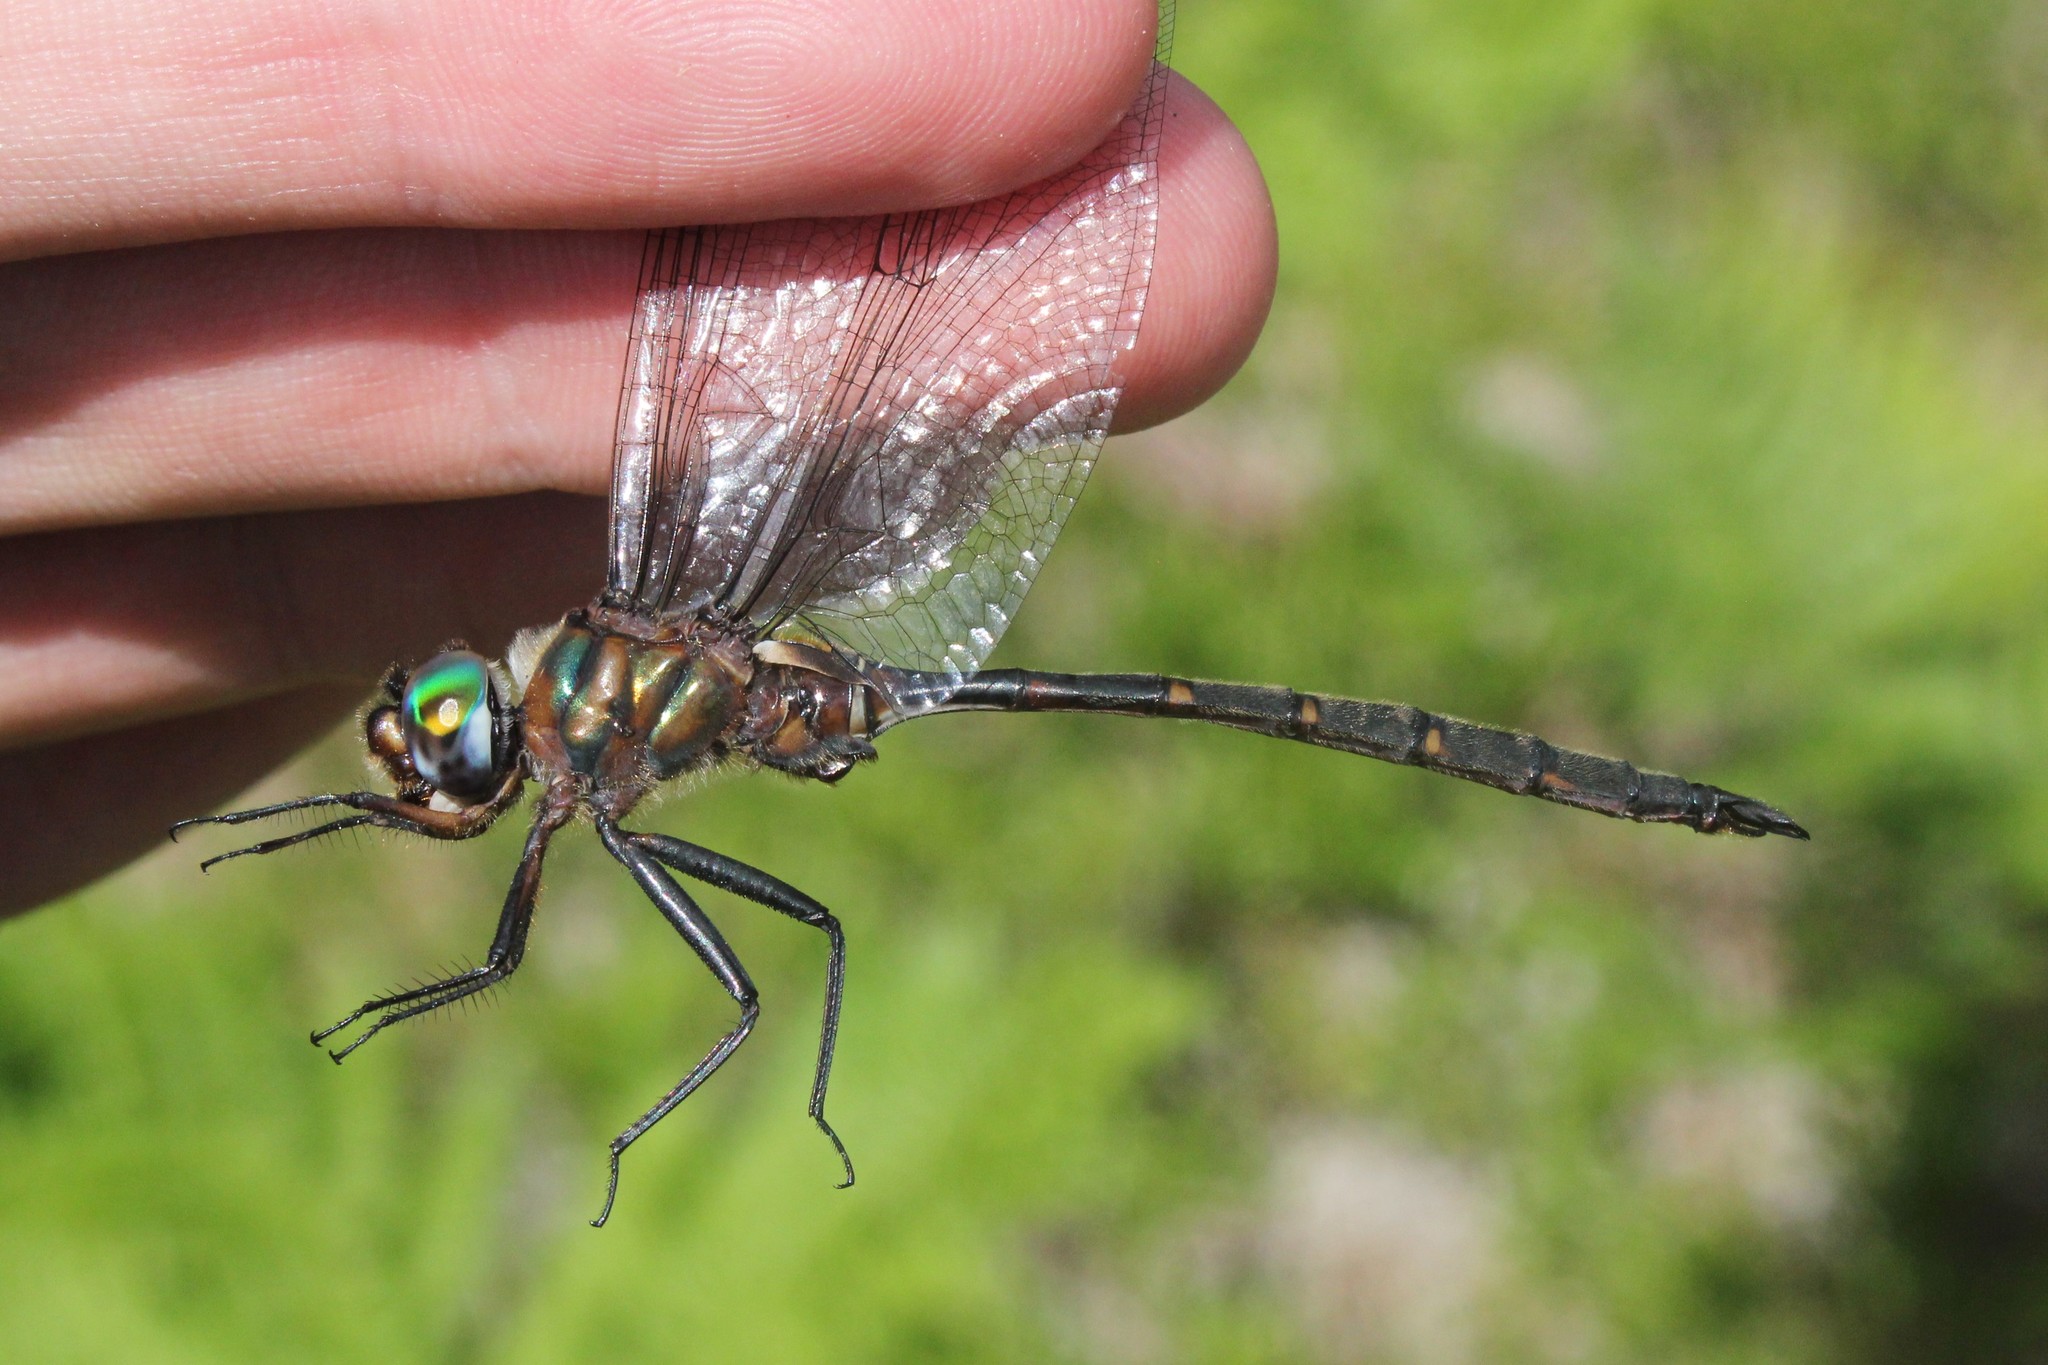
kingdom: Animalia
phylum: Arthropoda
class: Insecta
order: Odonata
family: Corduliidae
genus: Somatochlora
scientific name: Somatochlora incurvata
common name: Incurvate emerald
